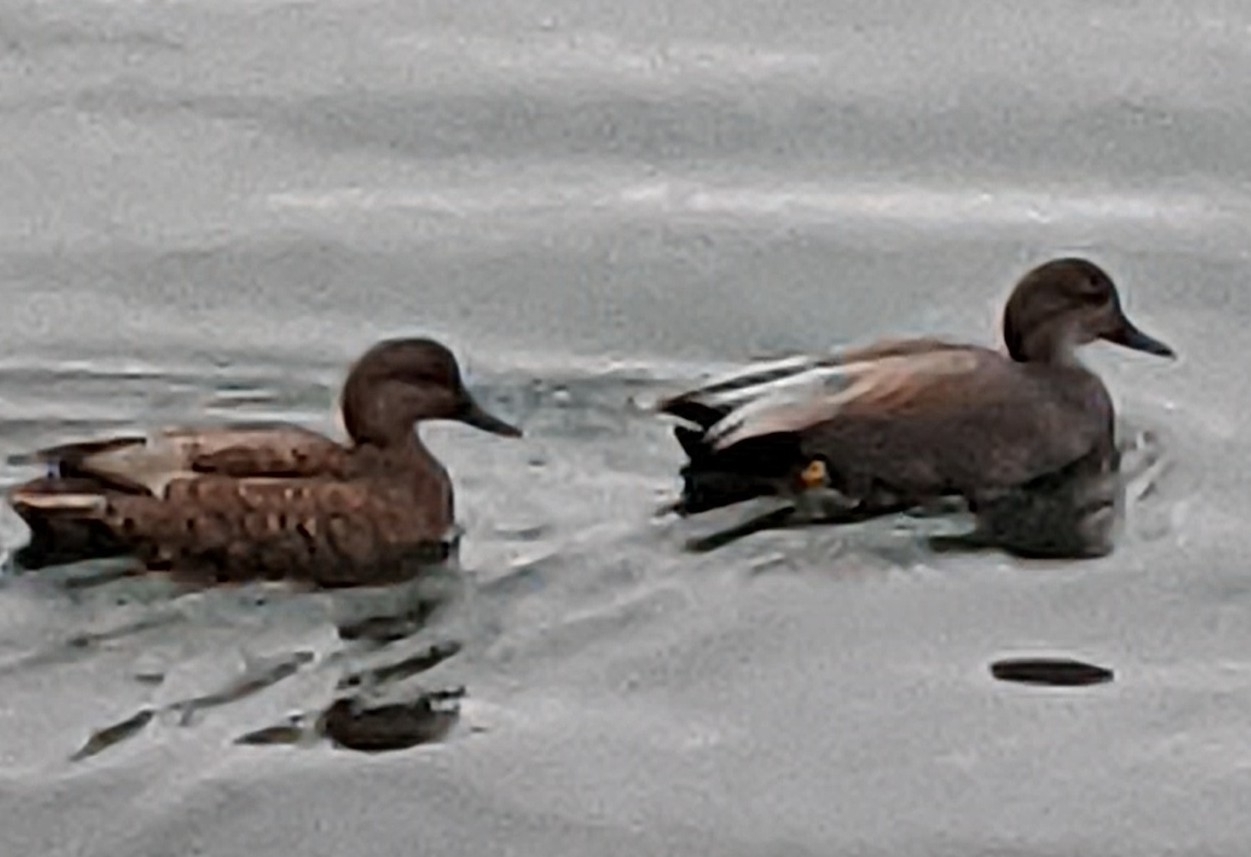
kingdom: Animalia
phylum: Chordata
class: Aves
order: Anseriformes
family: Anatidae
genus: Mareca
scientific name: Mareca strepera
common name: Gadwall
